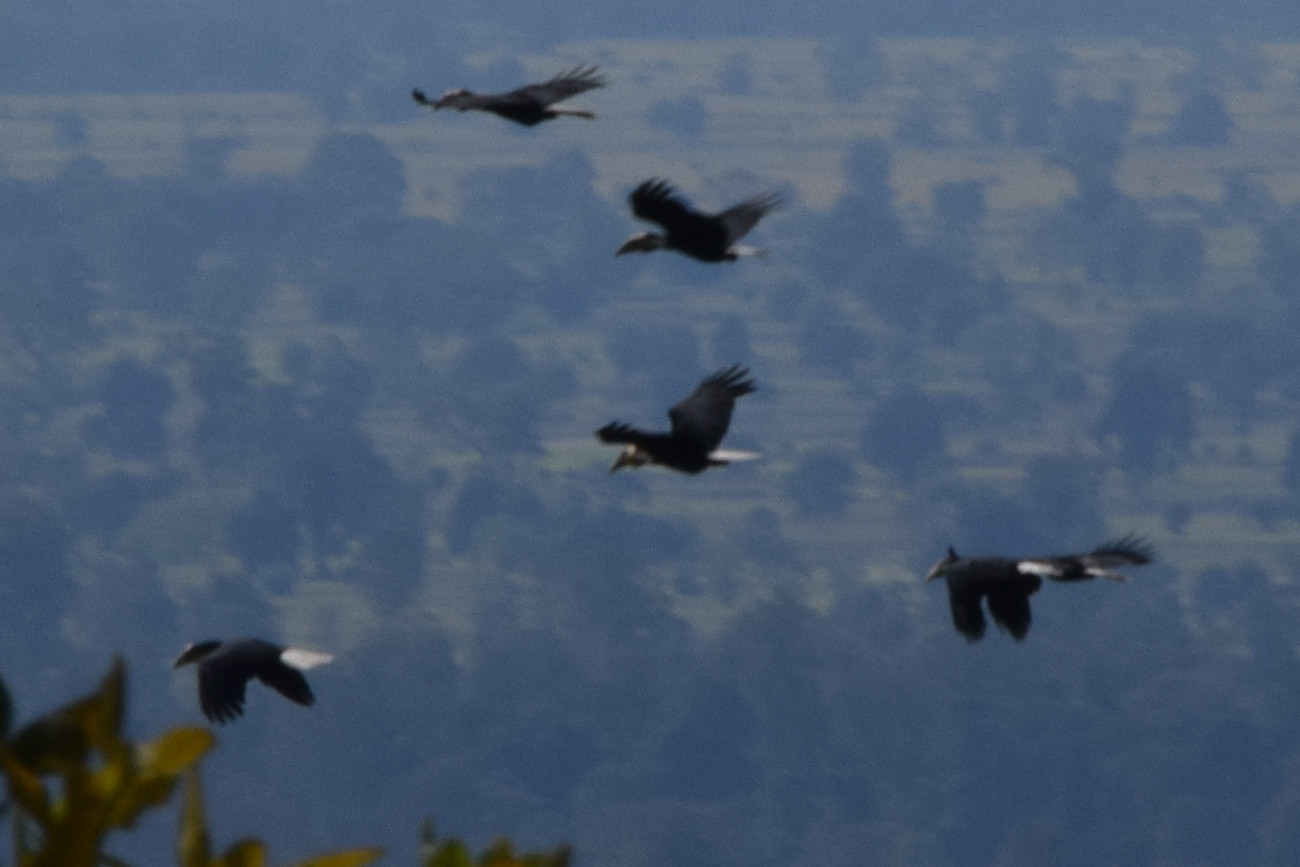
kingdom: Animalia
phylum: Chordata
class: Aves
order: Bucerotiformes
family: Bucerotidae
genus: Rhyticeros
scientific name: Rhyticeros undulatus
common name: Wreathed hornbill
